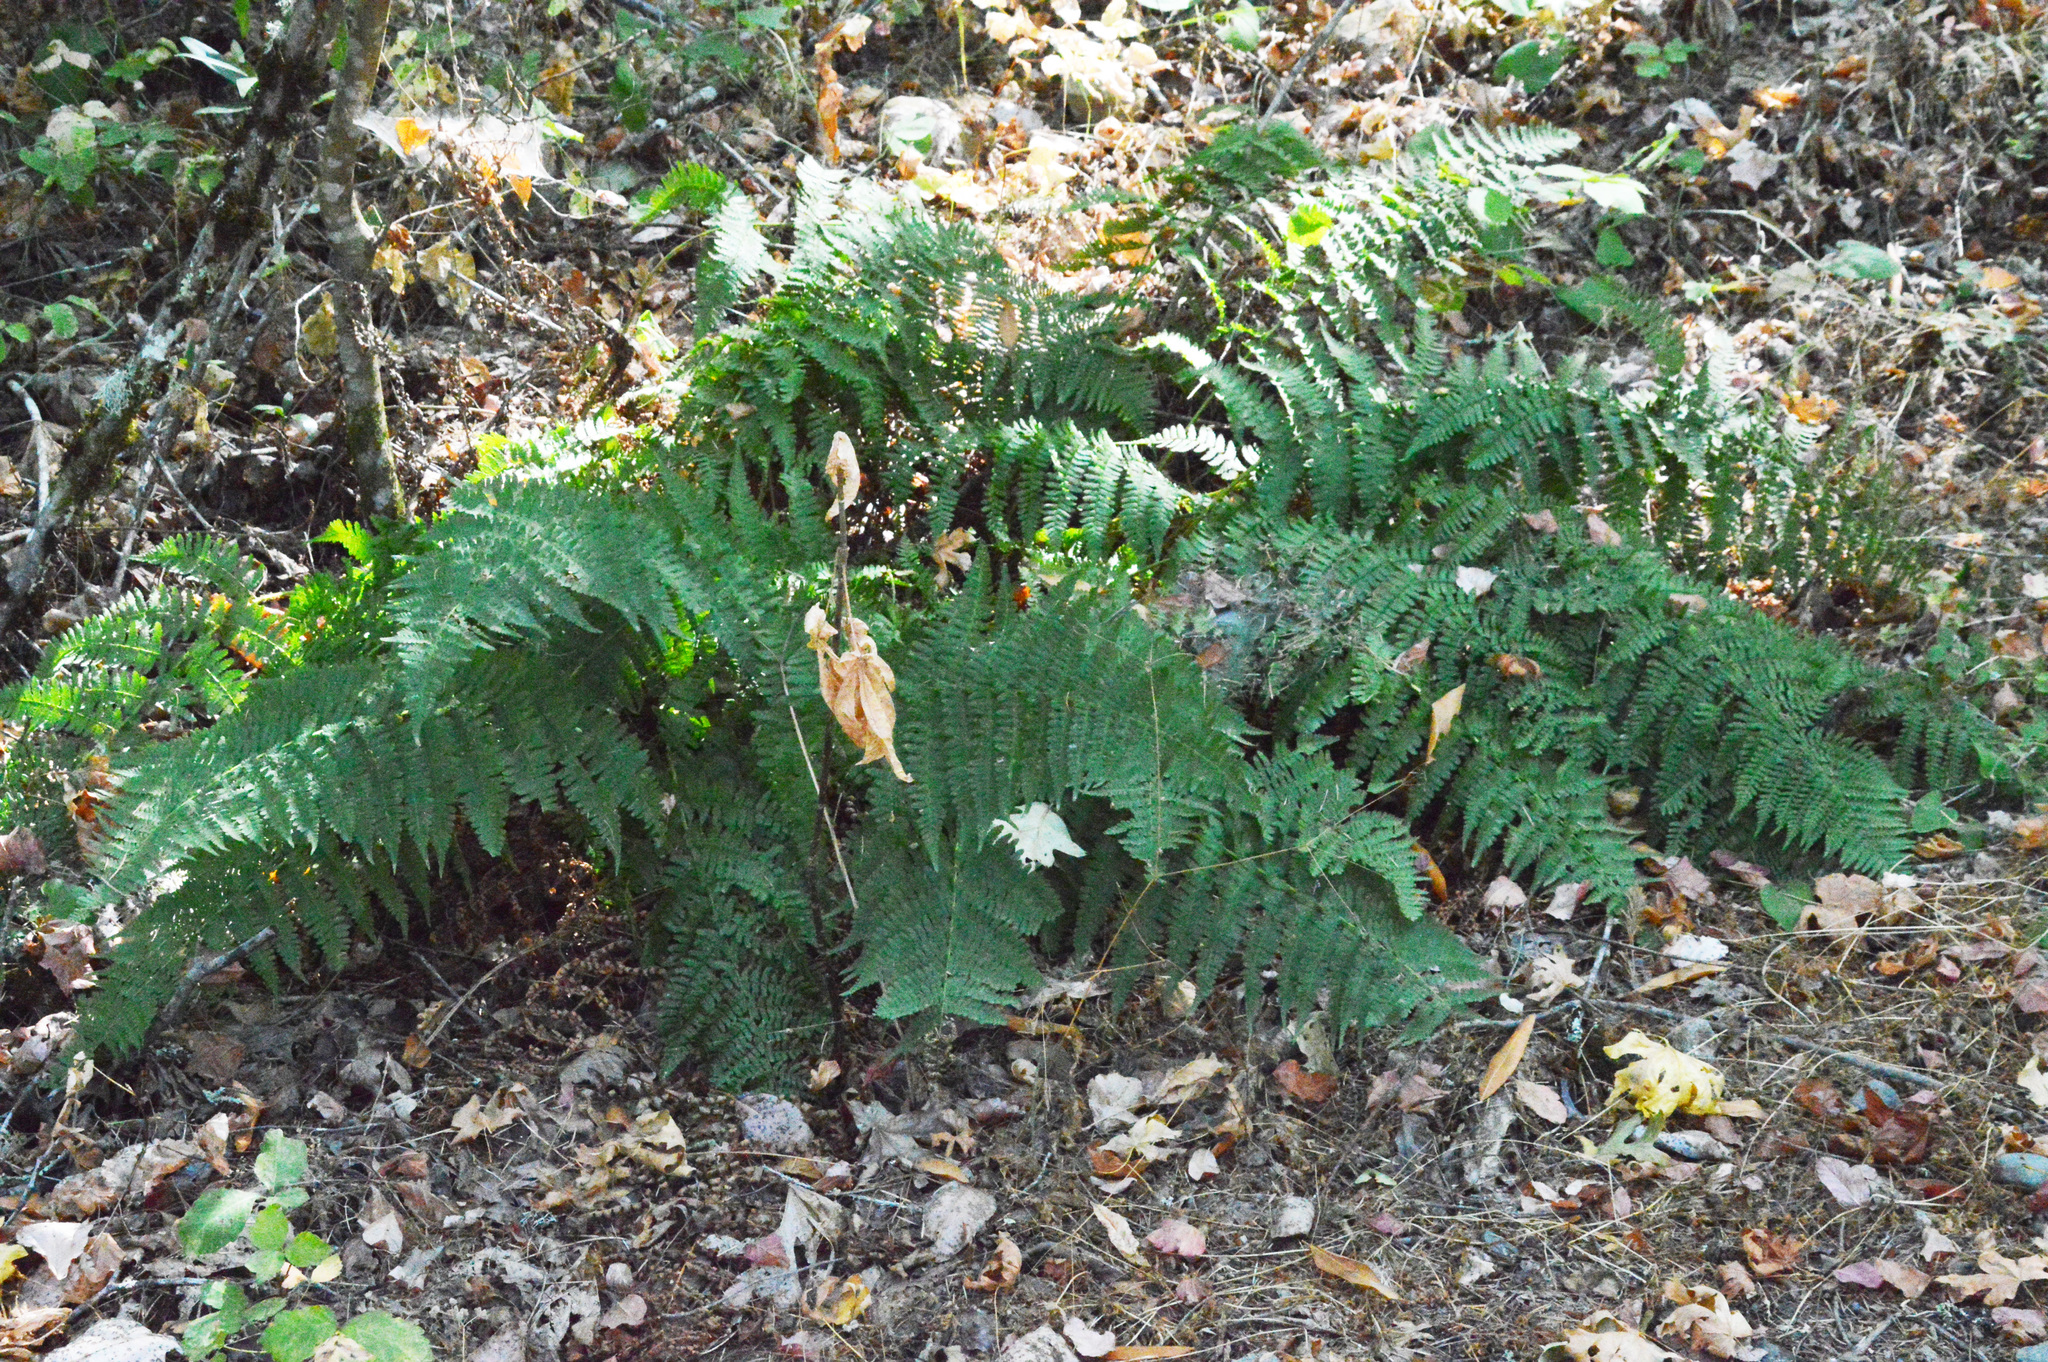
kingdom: Plantae
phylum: Tracheophyta
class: Polypodiopsida
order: Polypodiales
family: Dryopteridaceae
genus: Dryopteris
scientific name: Dryopteris arguta
